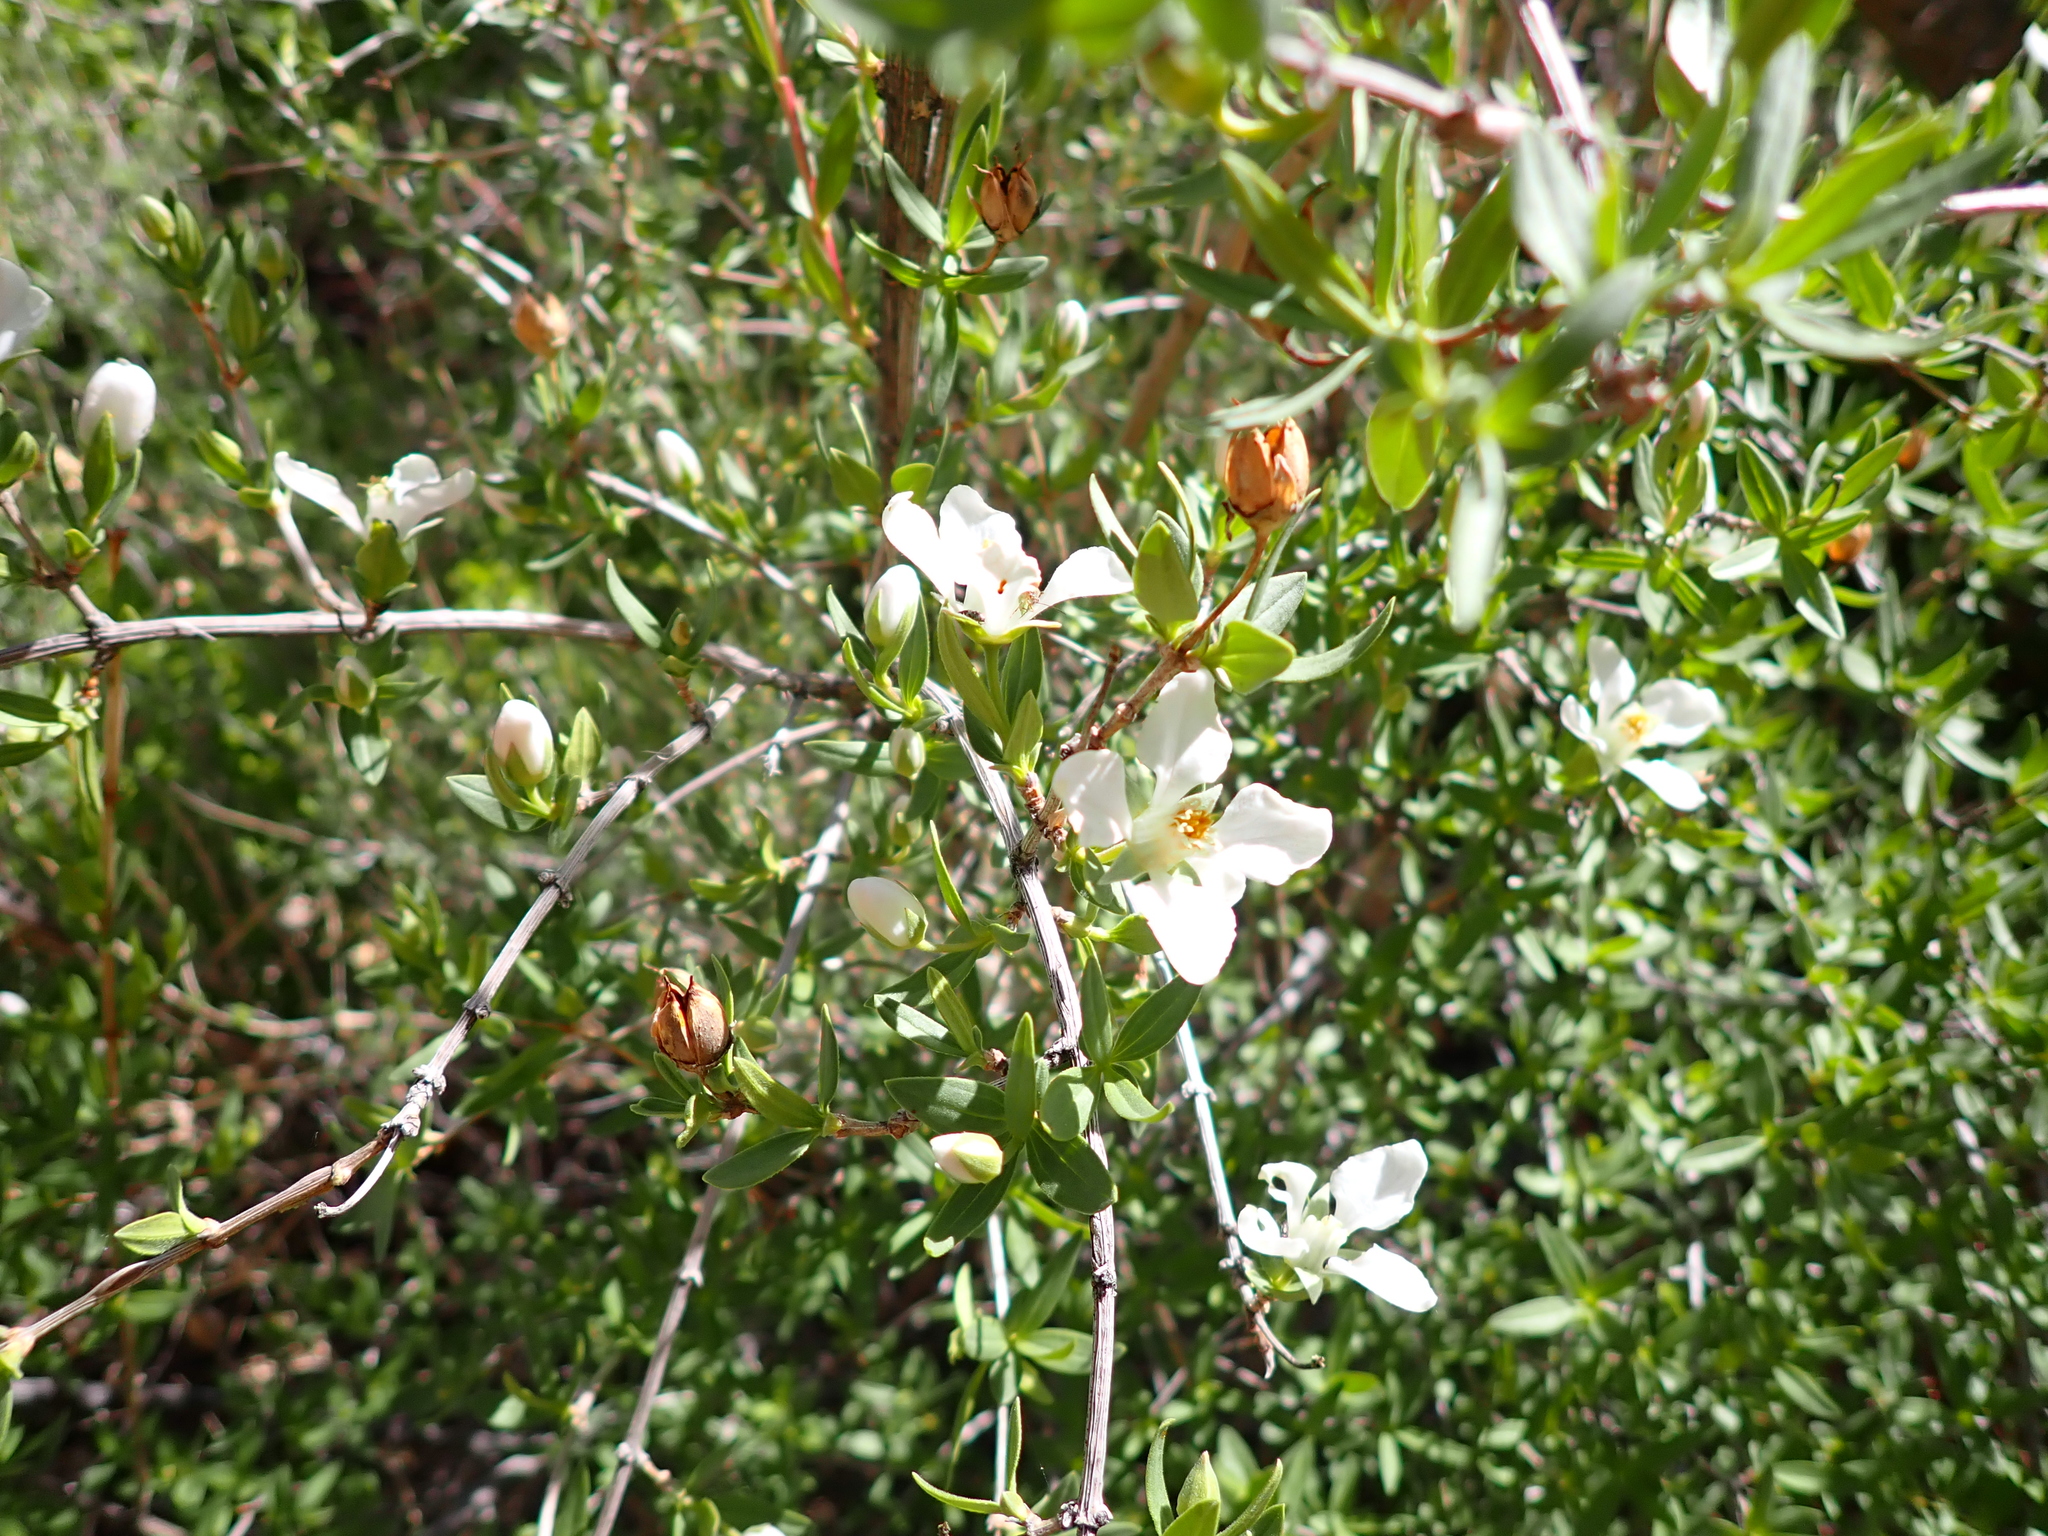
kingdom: Plantae
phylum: Tracheophyta
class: Magnoliopsida
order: Cornales
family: Hydrangeaceae
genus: Fendlera
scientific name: Fendlera rupicola
